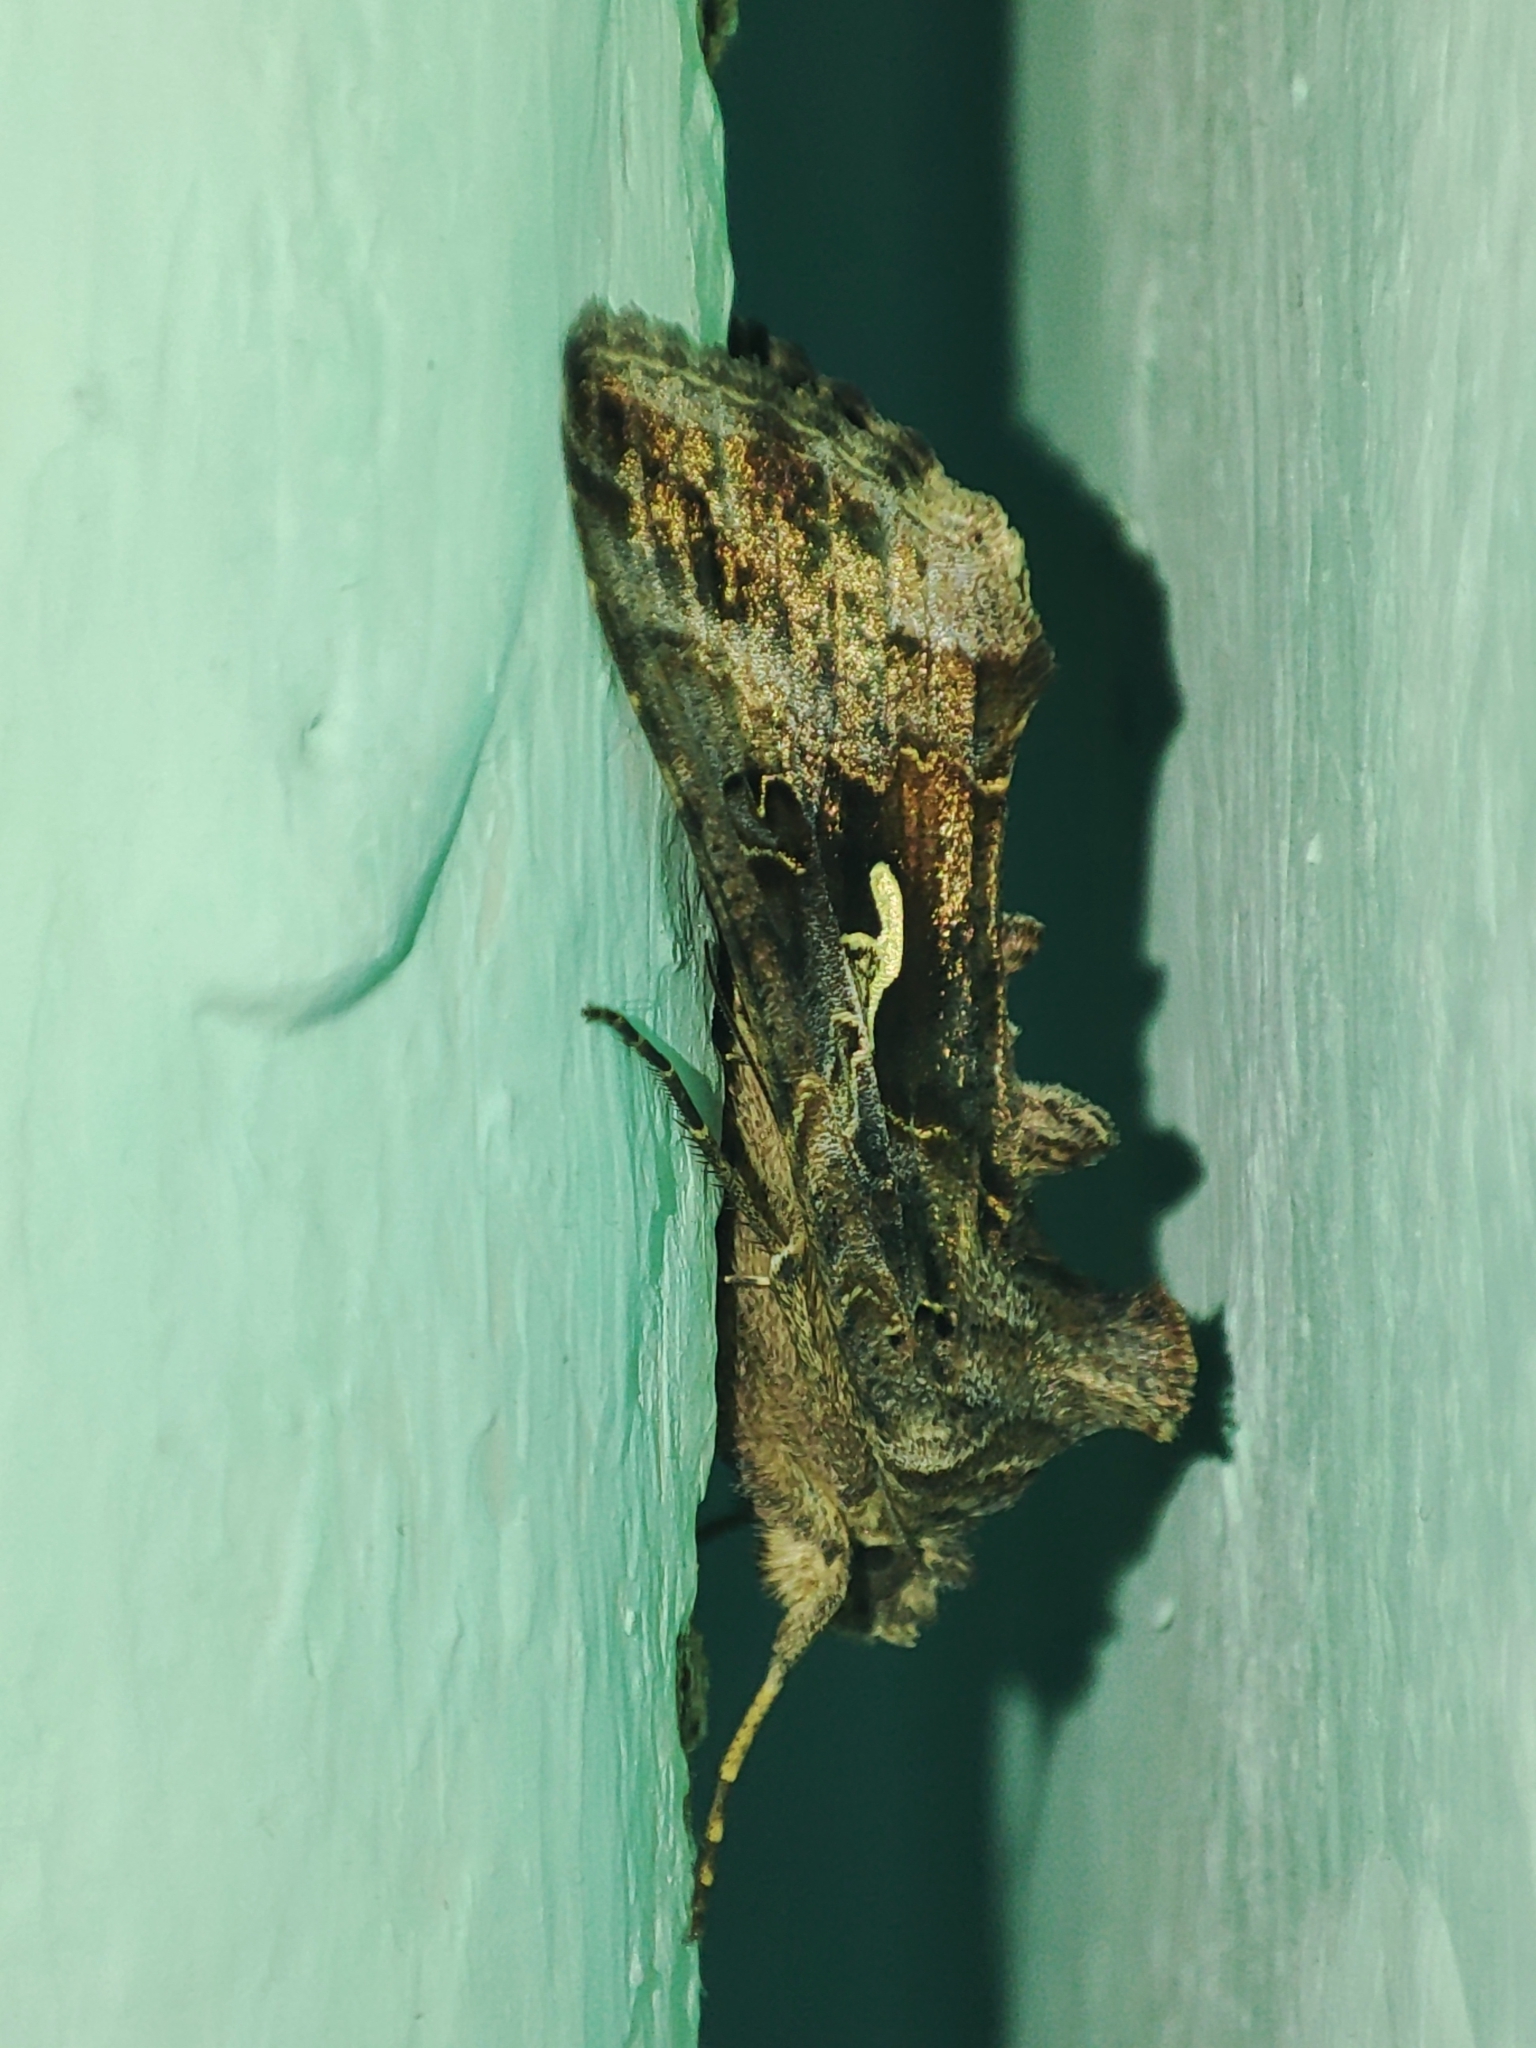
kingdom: Animalia
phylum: Arthropoda
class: Insecta
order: Lepidoptera
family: Noctuidae
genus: Autographa
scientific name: Autographa gamma
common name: Silver y
